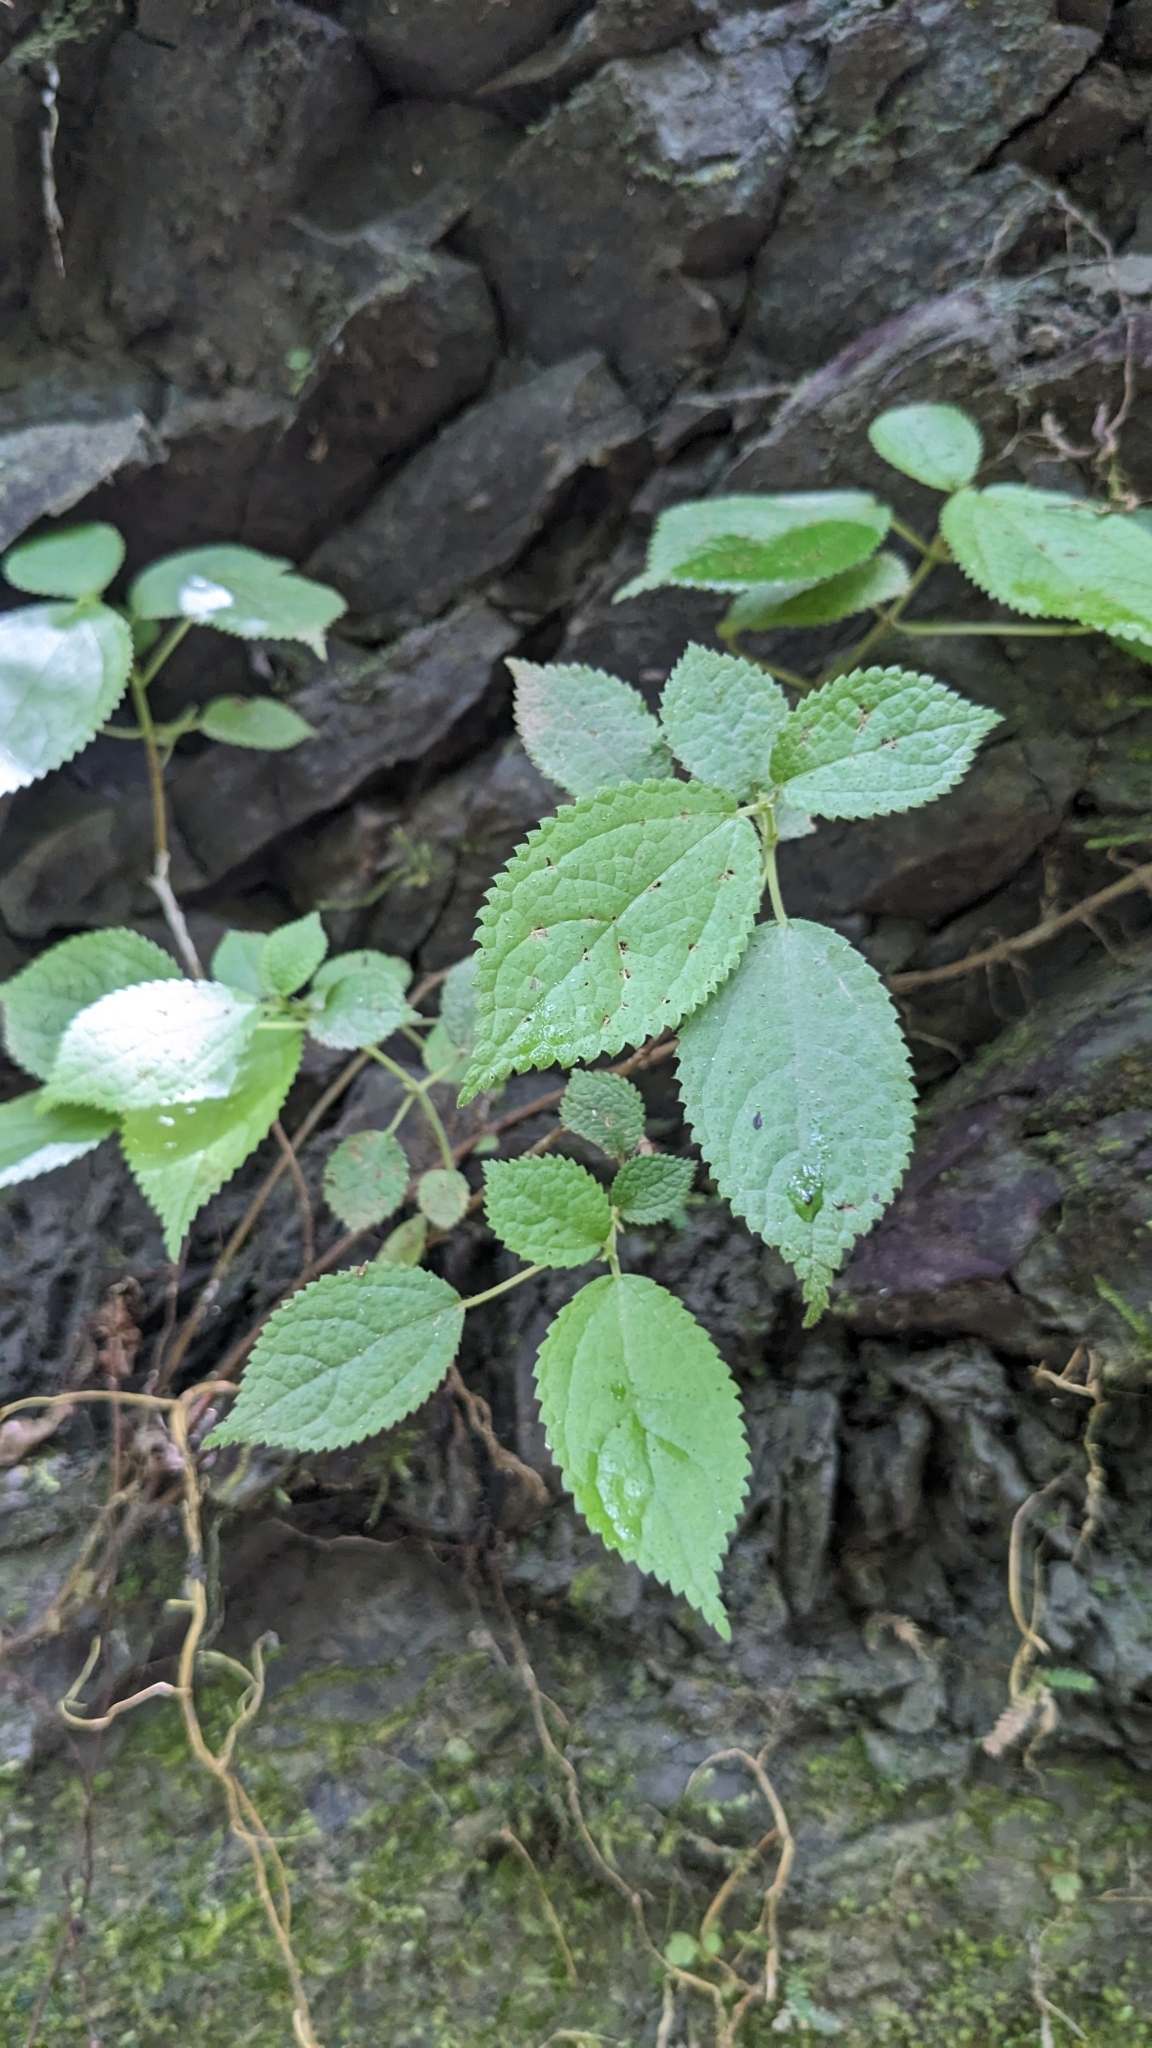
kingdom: Plantae
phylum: Tracheophyta
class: Magnoliopsida
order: Rosales
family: Urticaceae
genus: Boehmeria
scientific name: Boehmeria pilosiuscula
